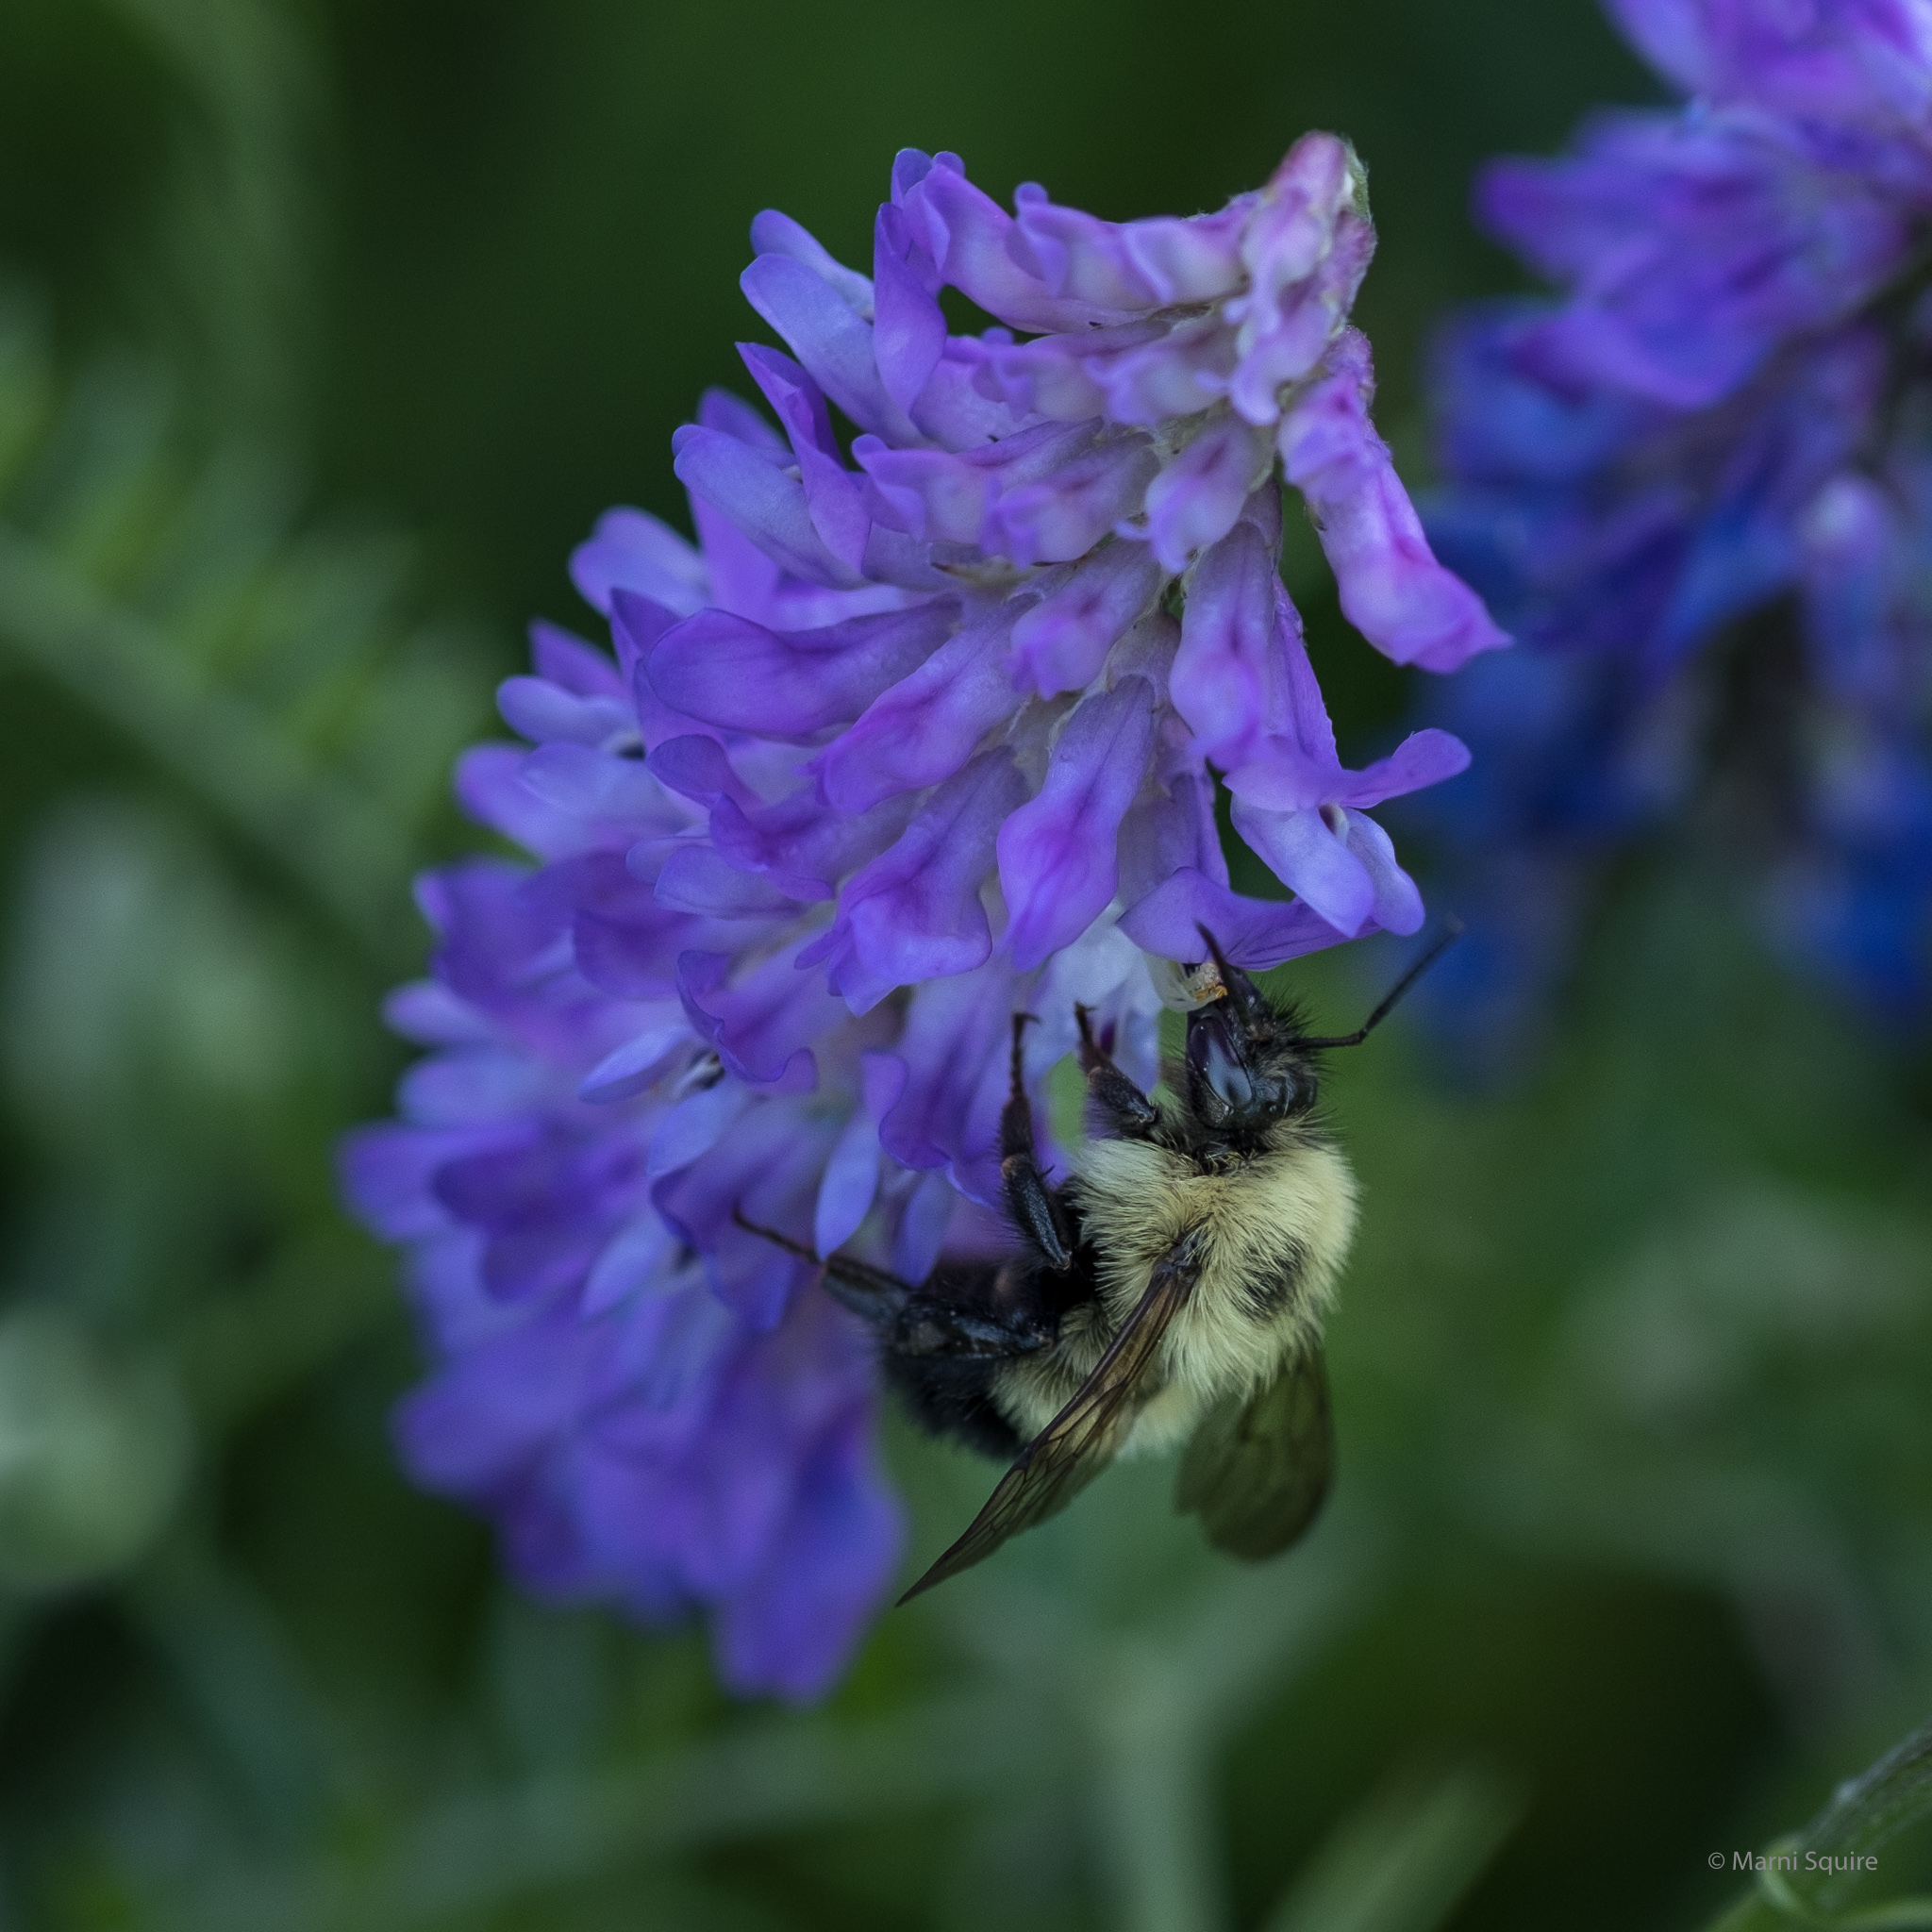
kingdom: Animalia
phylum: Arthropoda
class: Insecta
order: Hymenoptera
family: Apidae
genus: Pyrobombus
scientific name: Pyrobombus
